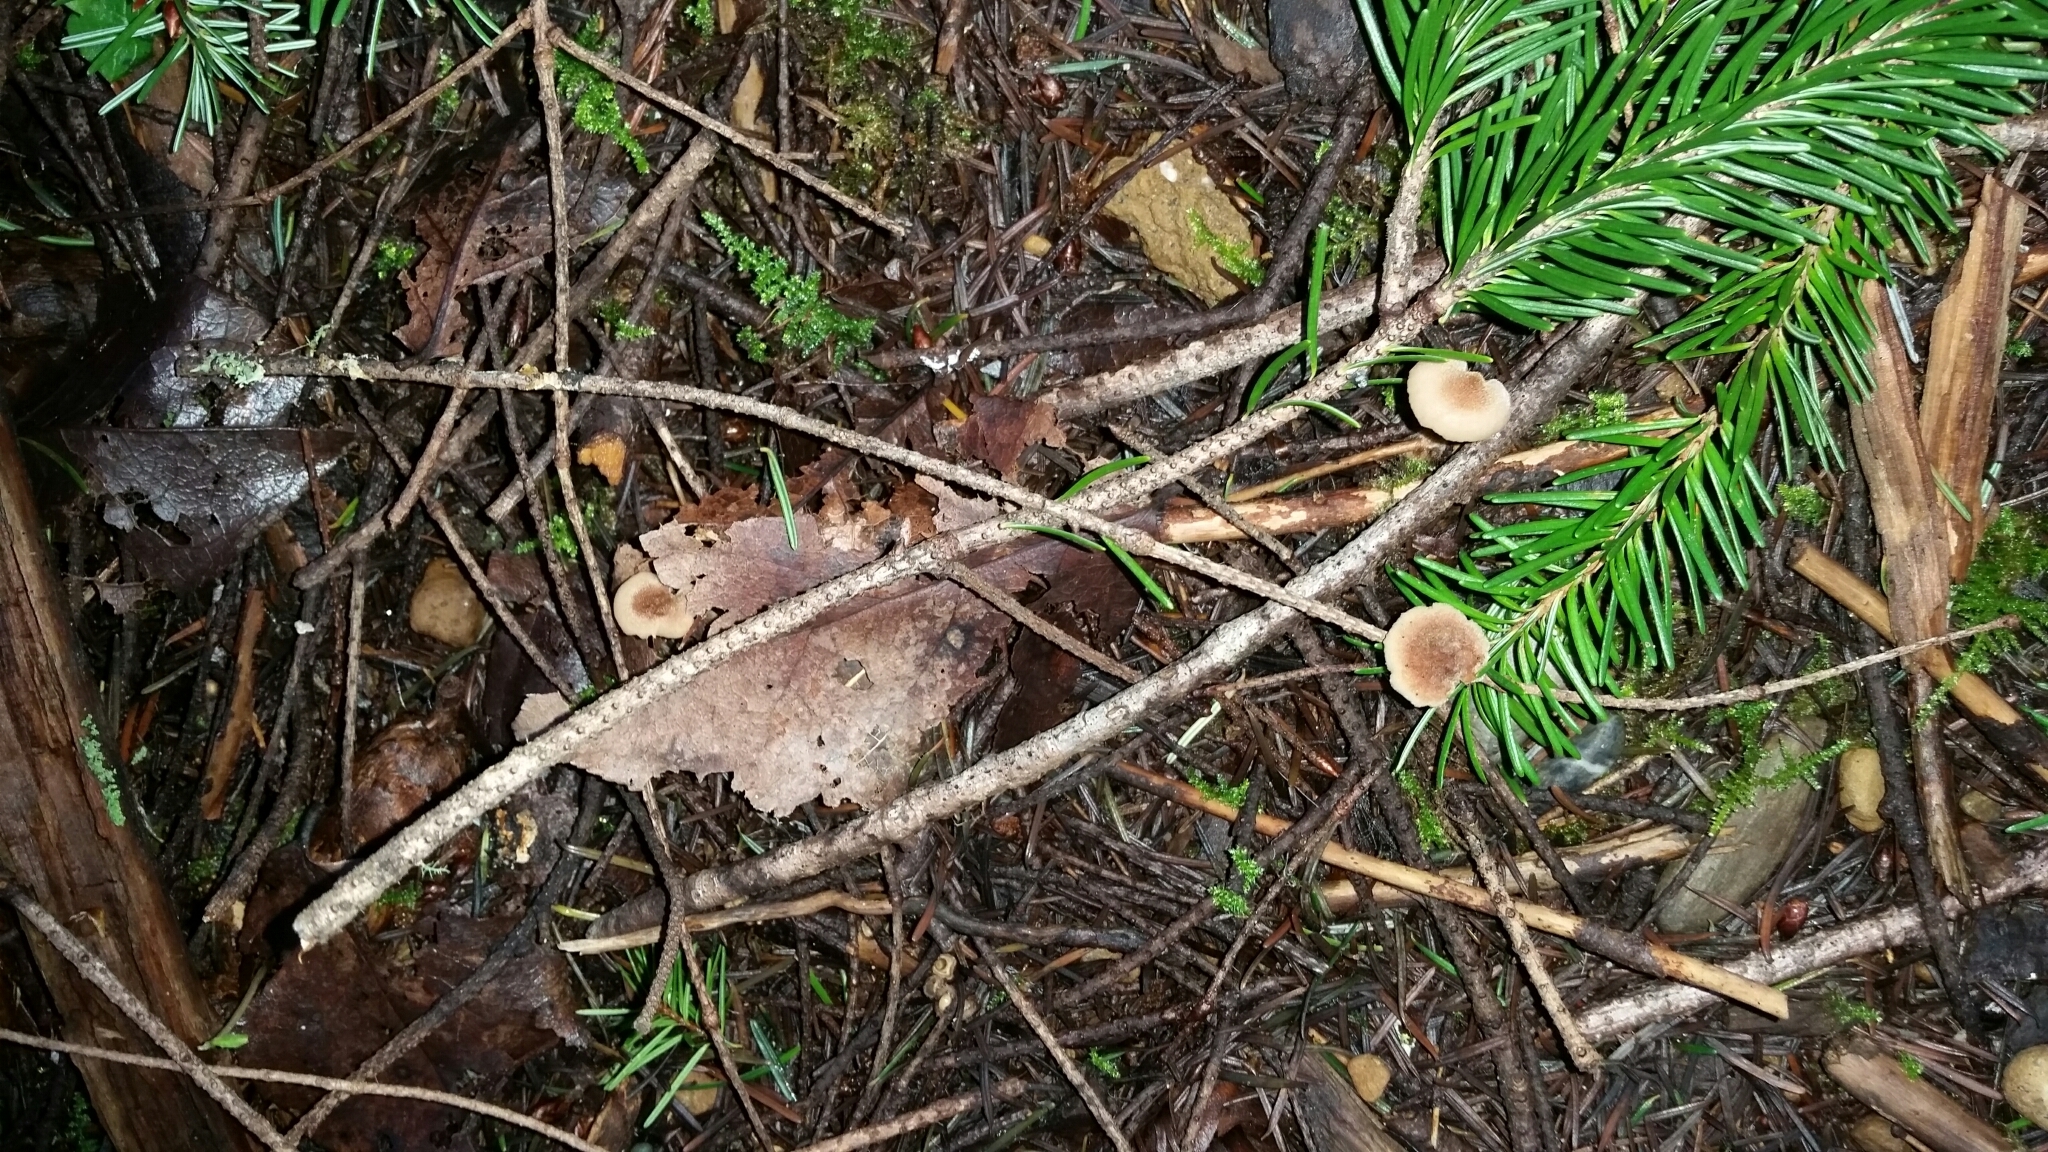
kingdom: Fungi
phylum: Basidiomycota
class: Agaricomycetes
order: Russulales
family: Auriscalpiaceae
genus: Auriscalpium
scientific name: Auriscalpium vulgare
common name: Earpick fungus
